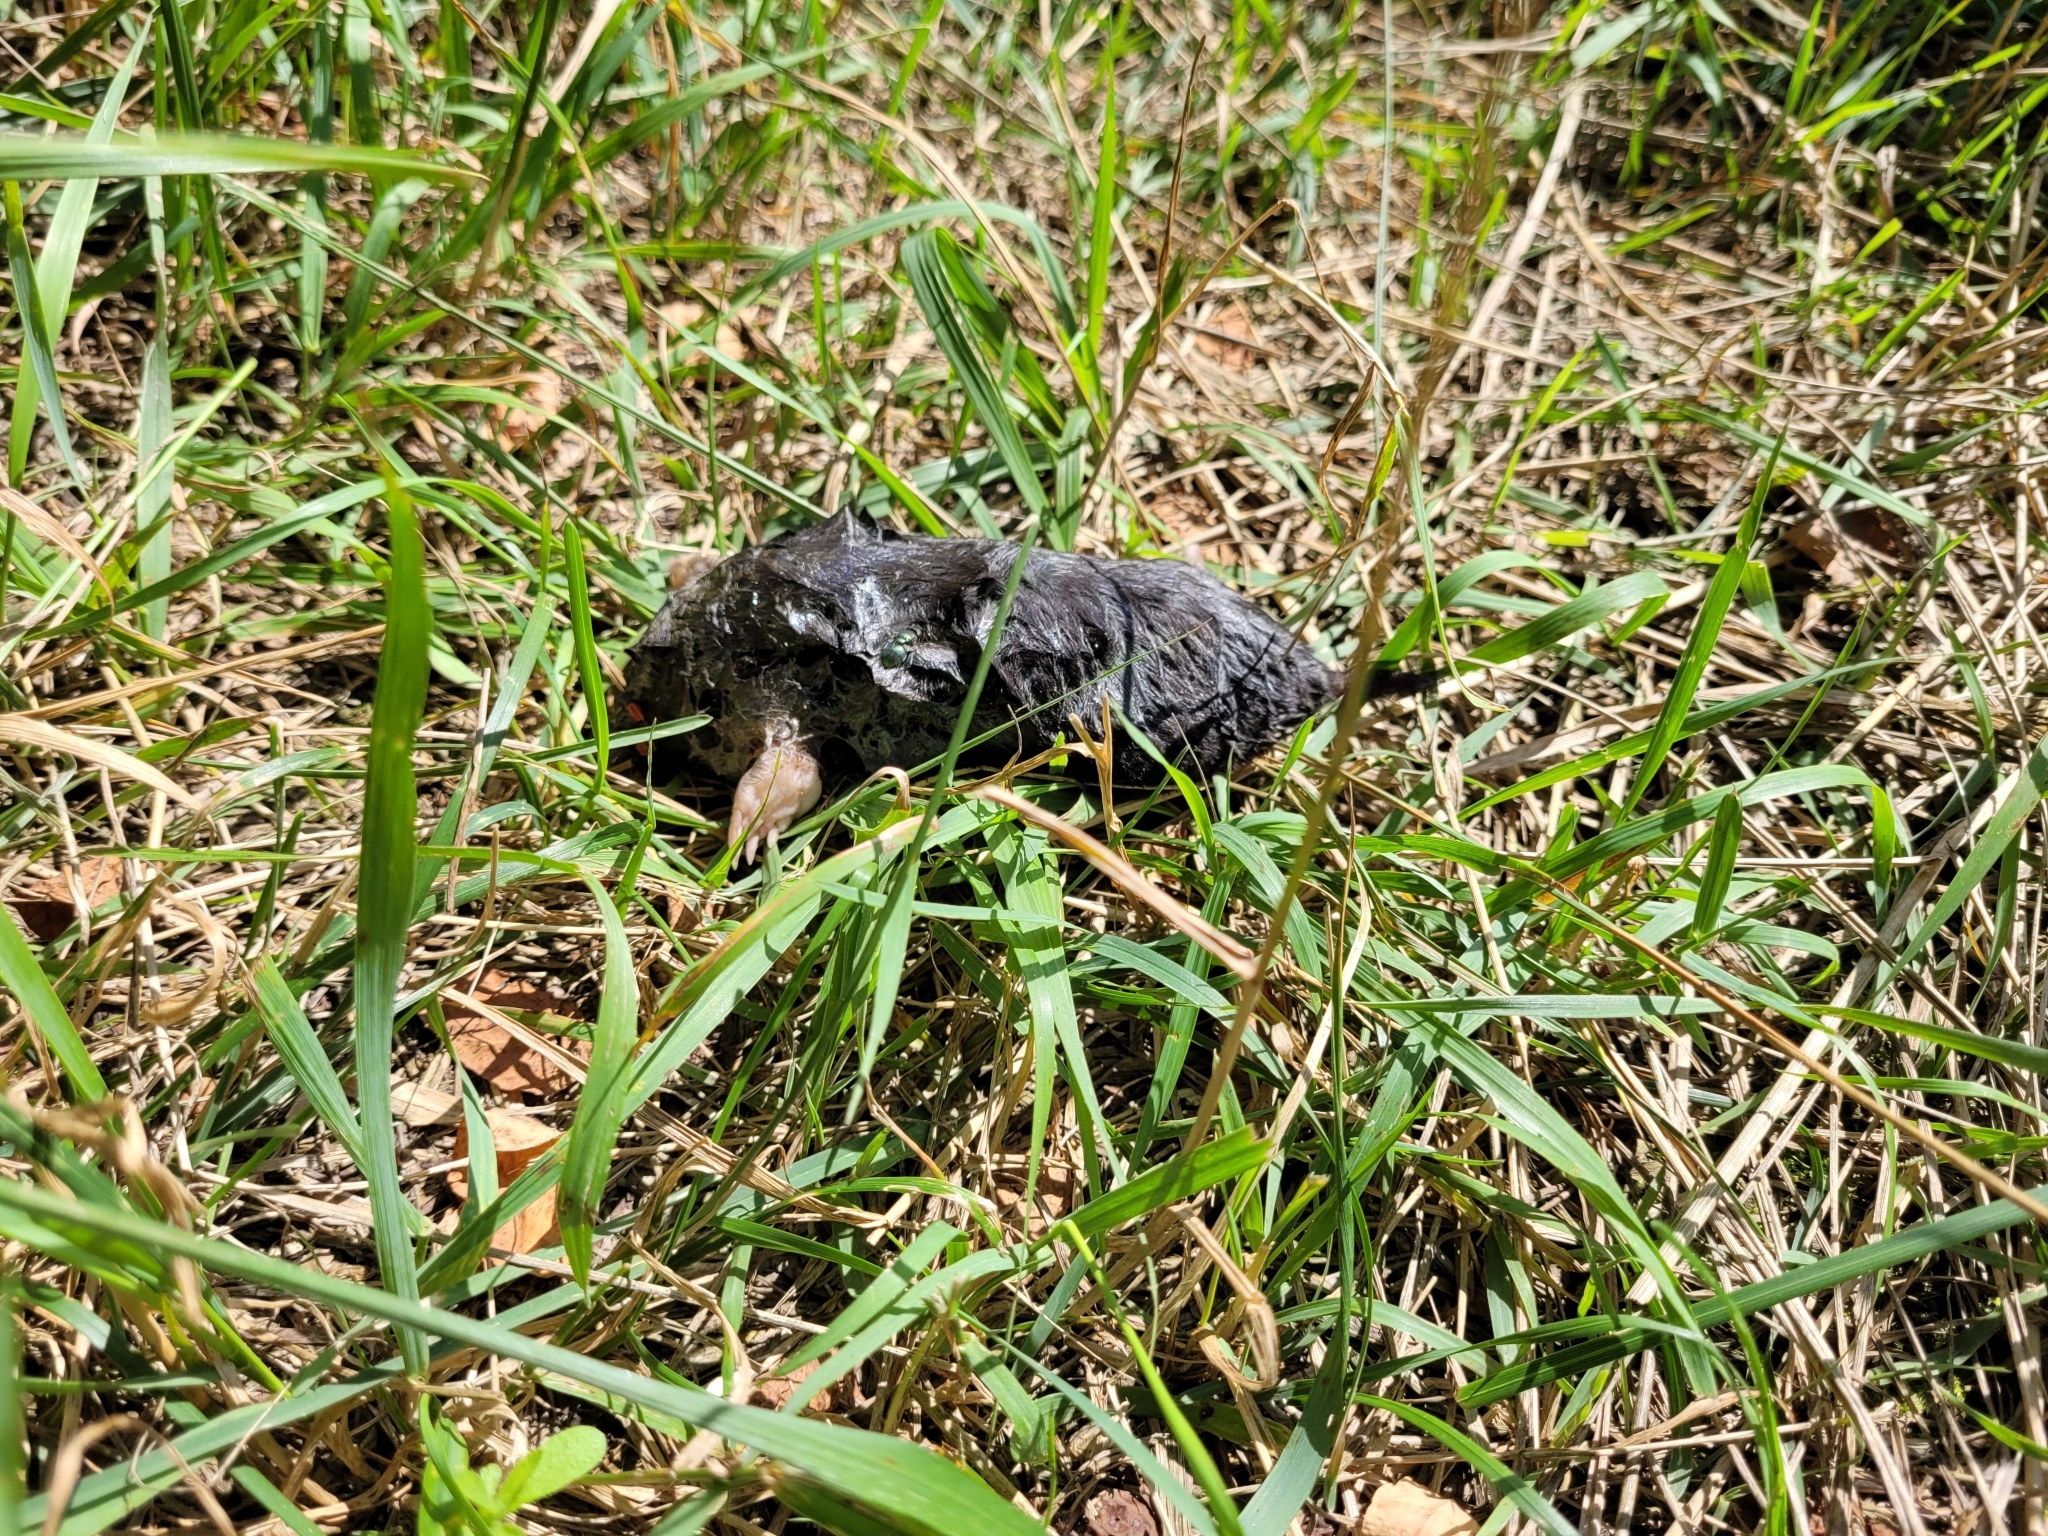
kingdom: Animalia
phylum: Chordata
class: Mammalia
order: Soricomorpha
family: Talpidae
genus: Talpa
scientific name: Talpa europaea
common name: European mole
